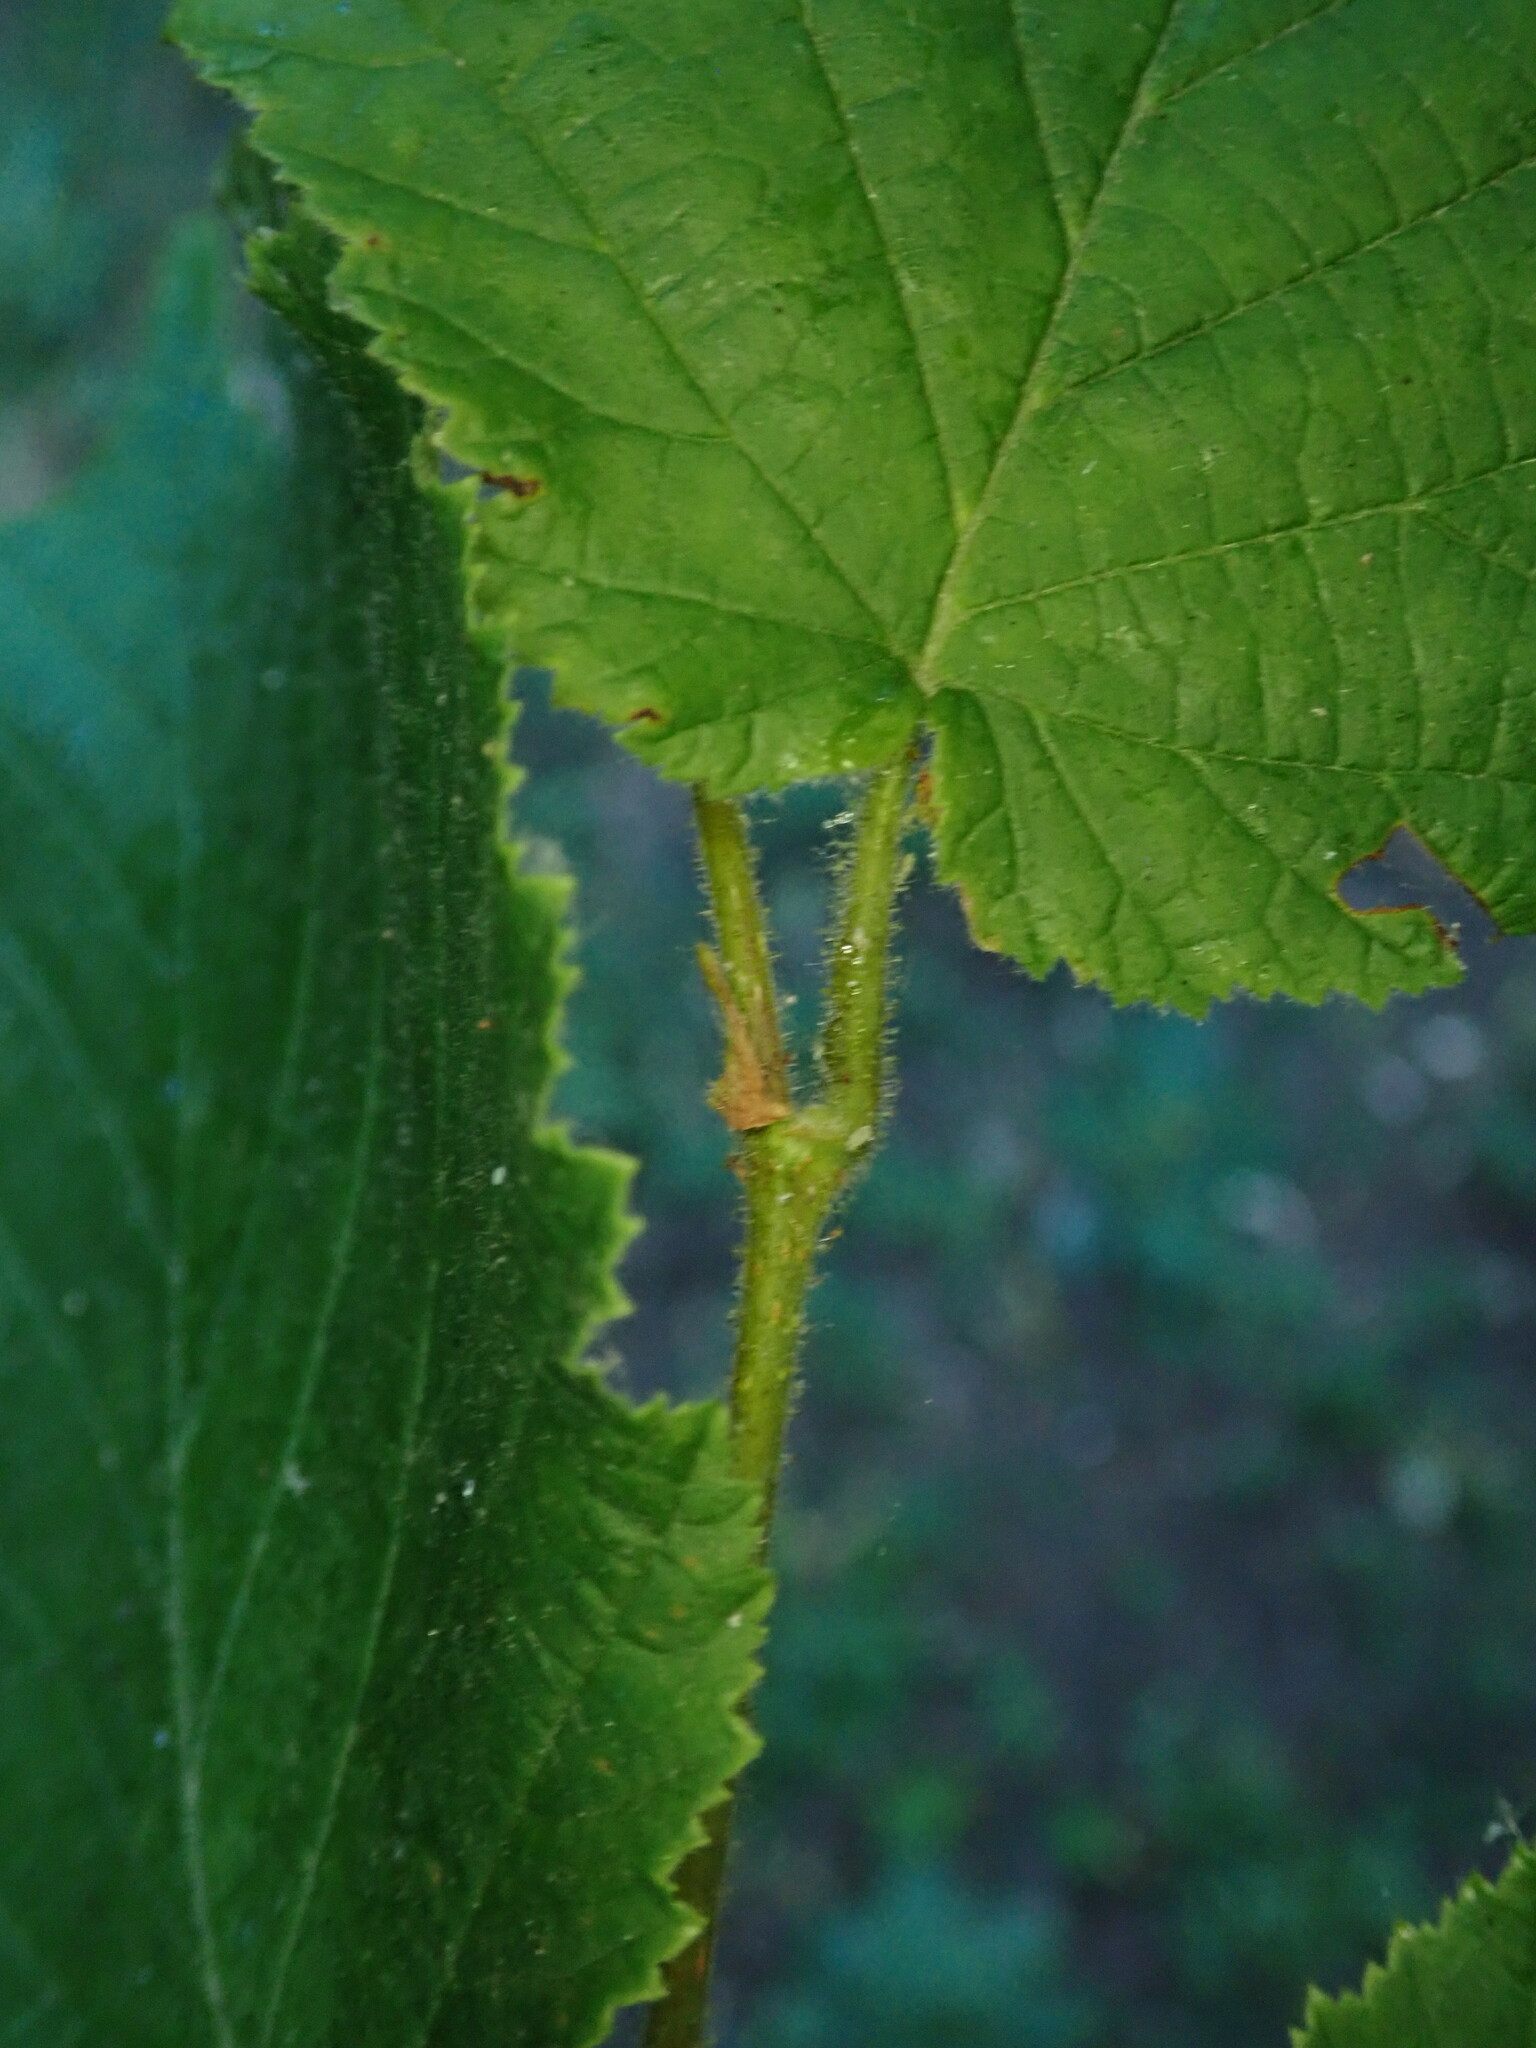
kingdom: Plantae
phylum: Tracheophyta
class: Magnoliopsida
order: Fagales
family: Betulaceae
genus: Corylus
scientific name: Corylus avellana
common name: European hazel
